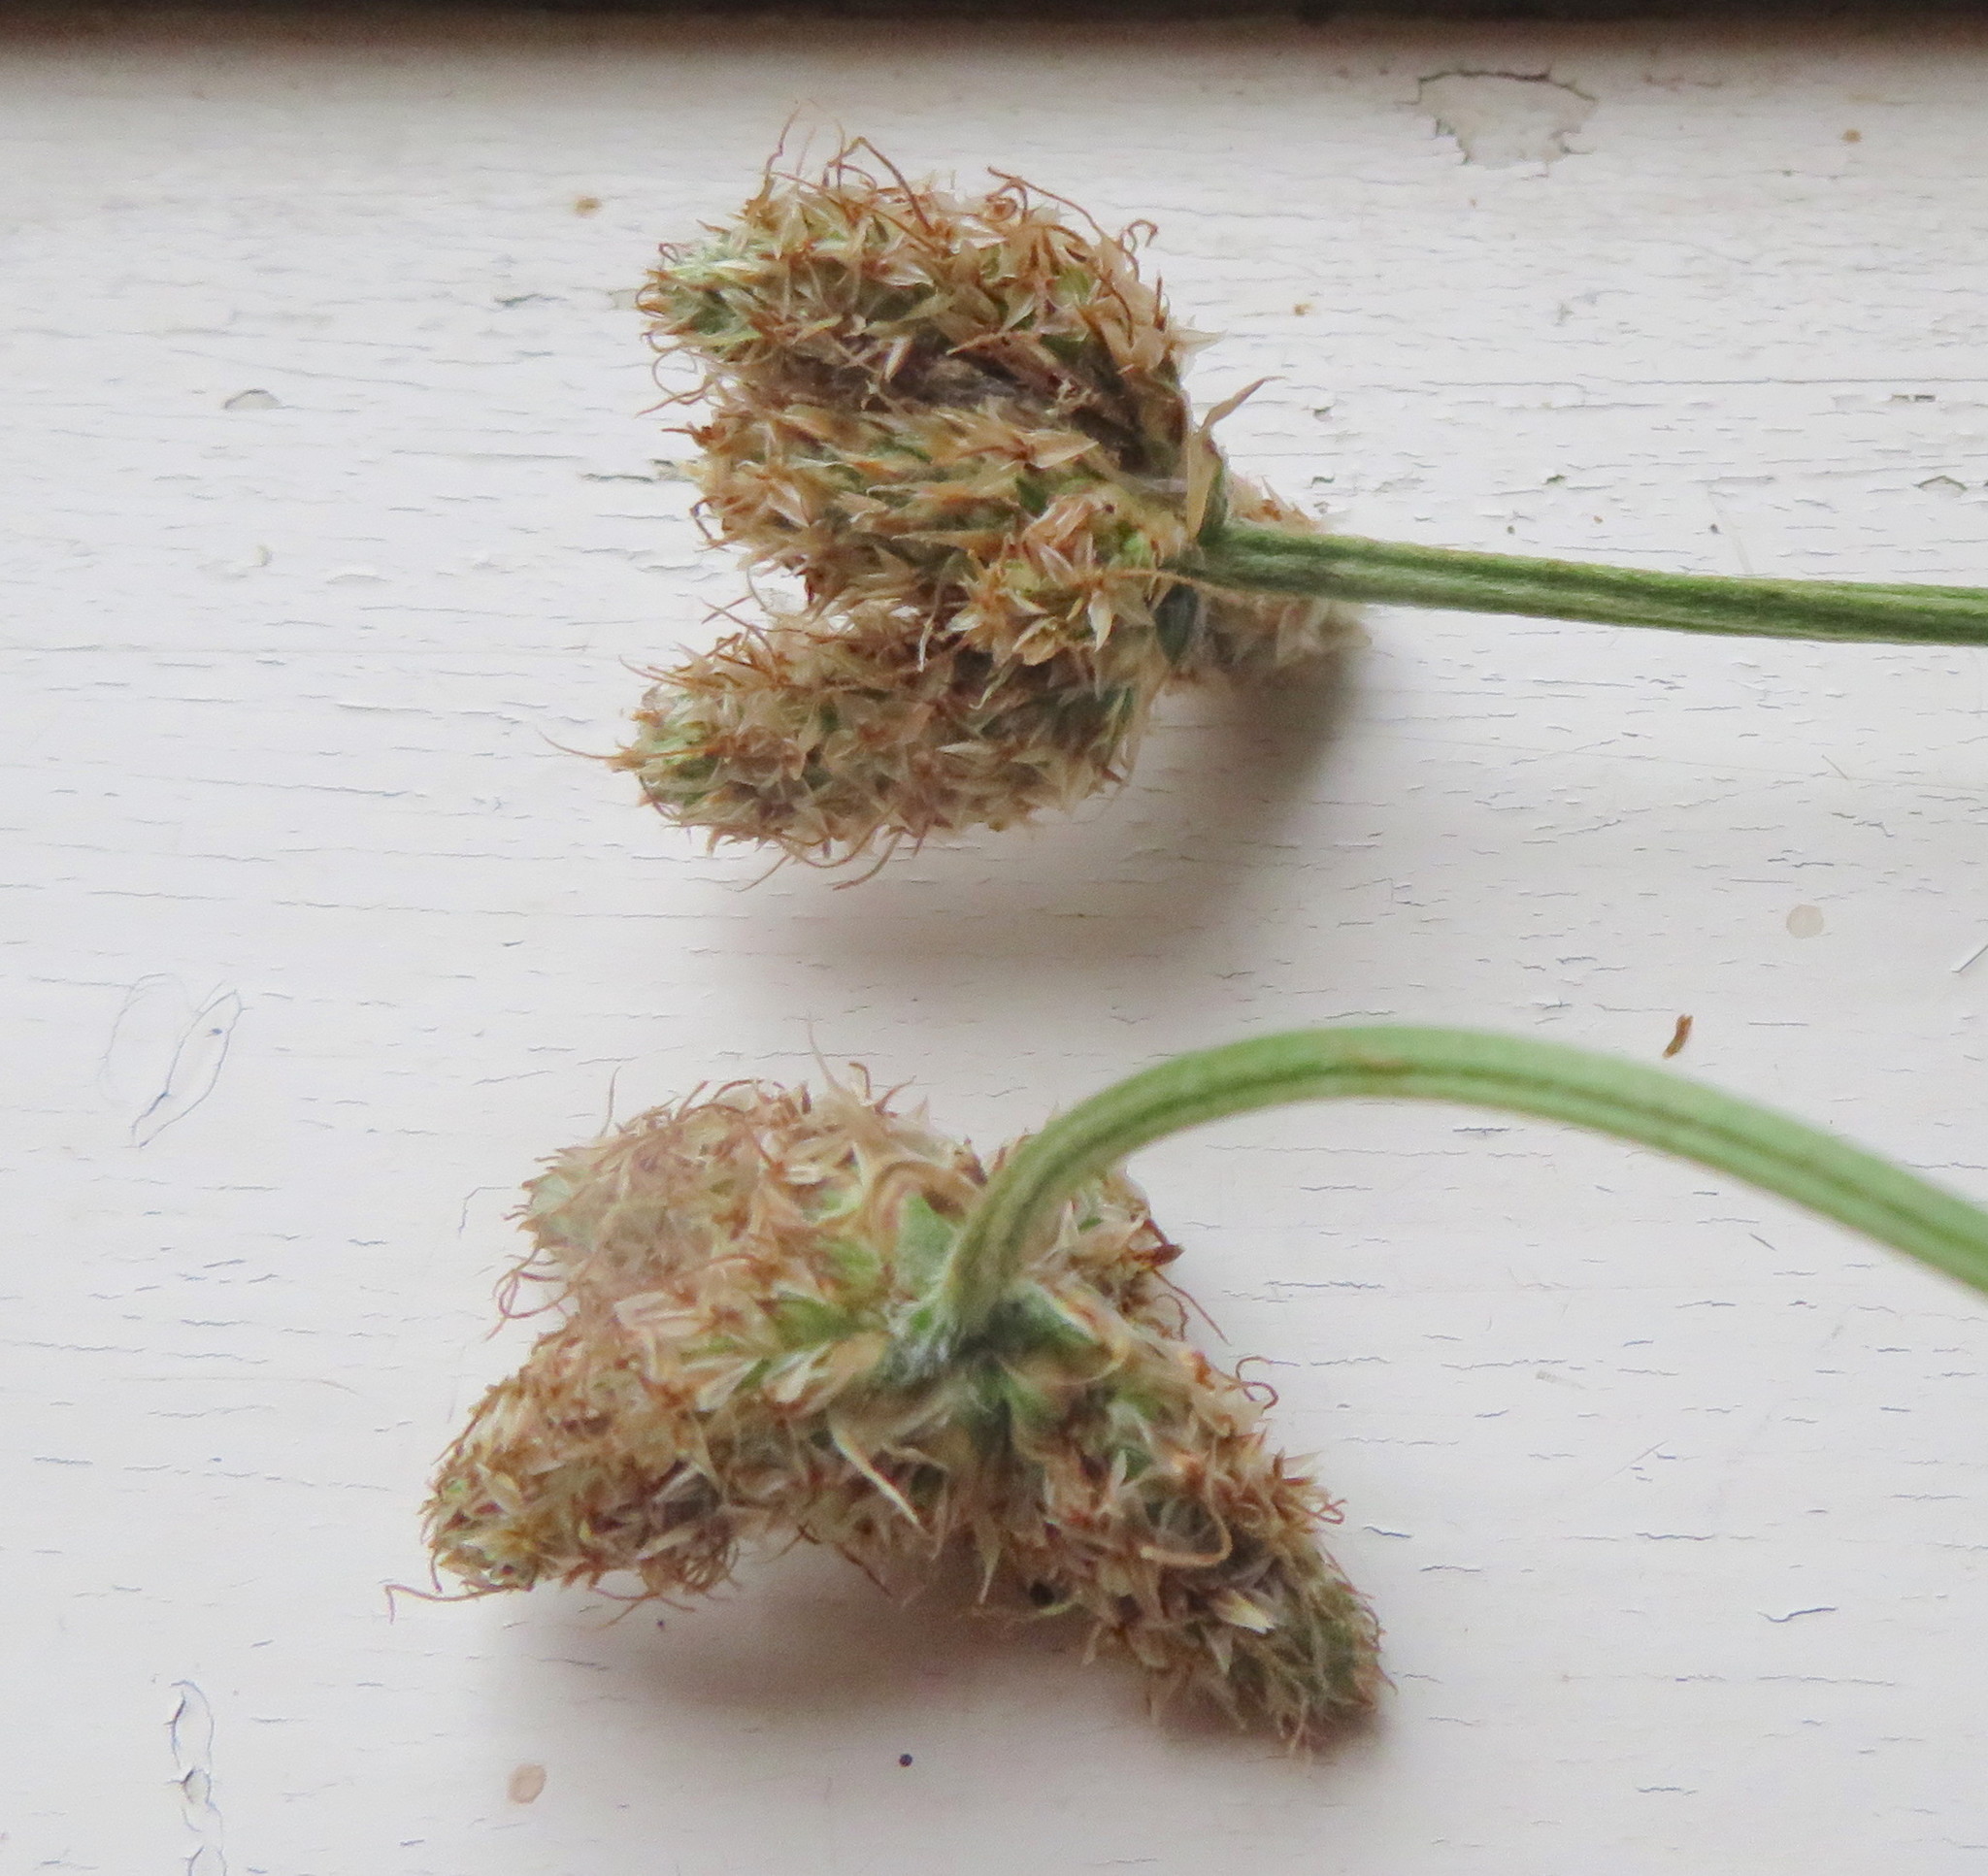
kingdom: Plantae
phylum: Tracheophyta
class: Magnoliopsida
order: Lamiales
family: Plantaginaceae
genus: Plantago
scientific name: Plantago lanceolata
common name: Ribwort plantain
